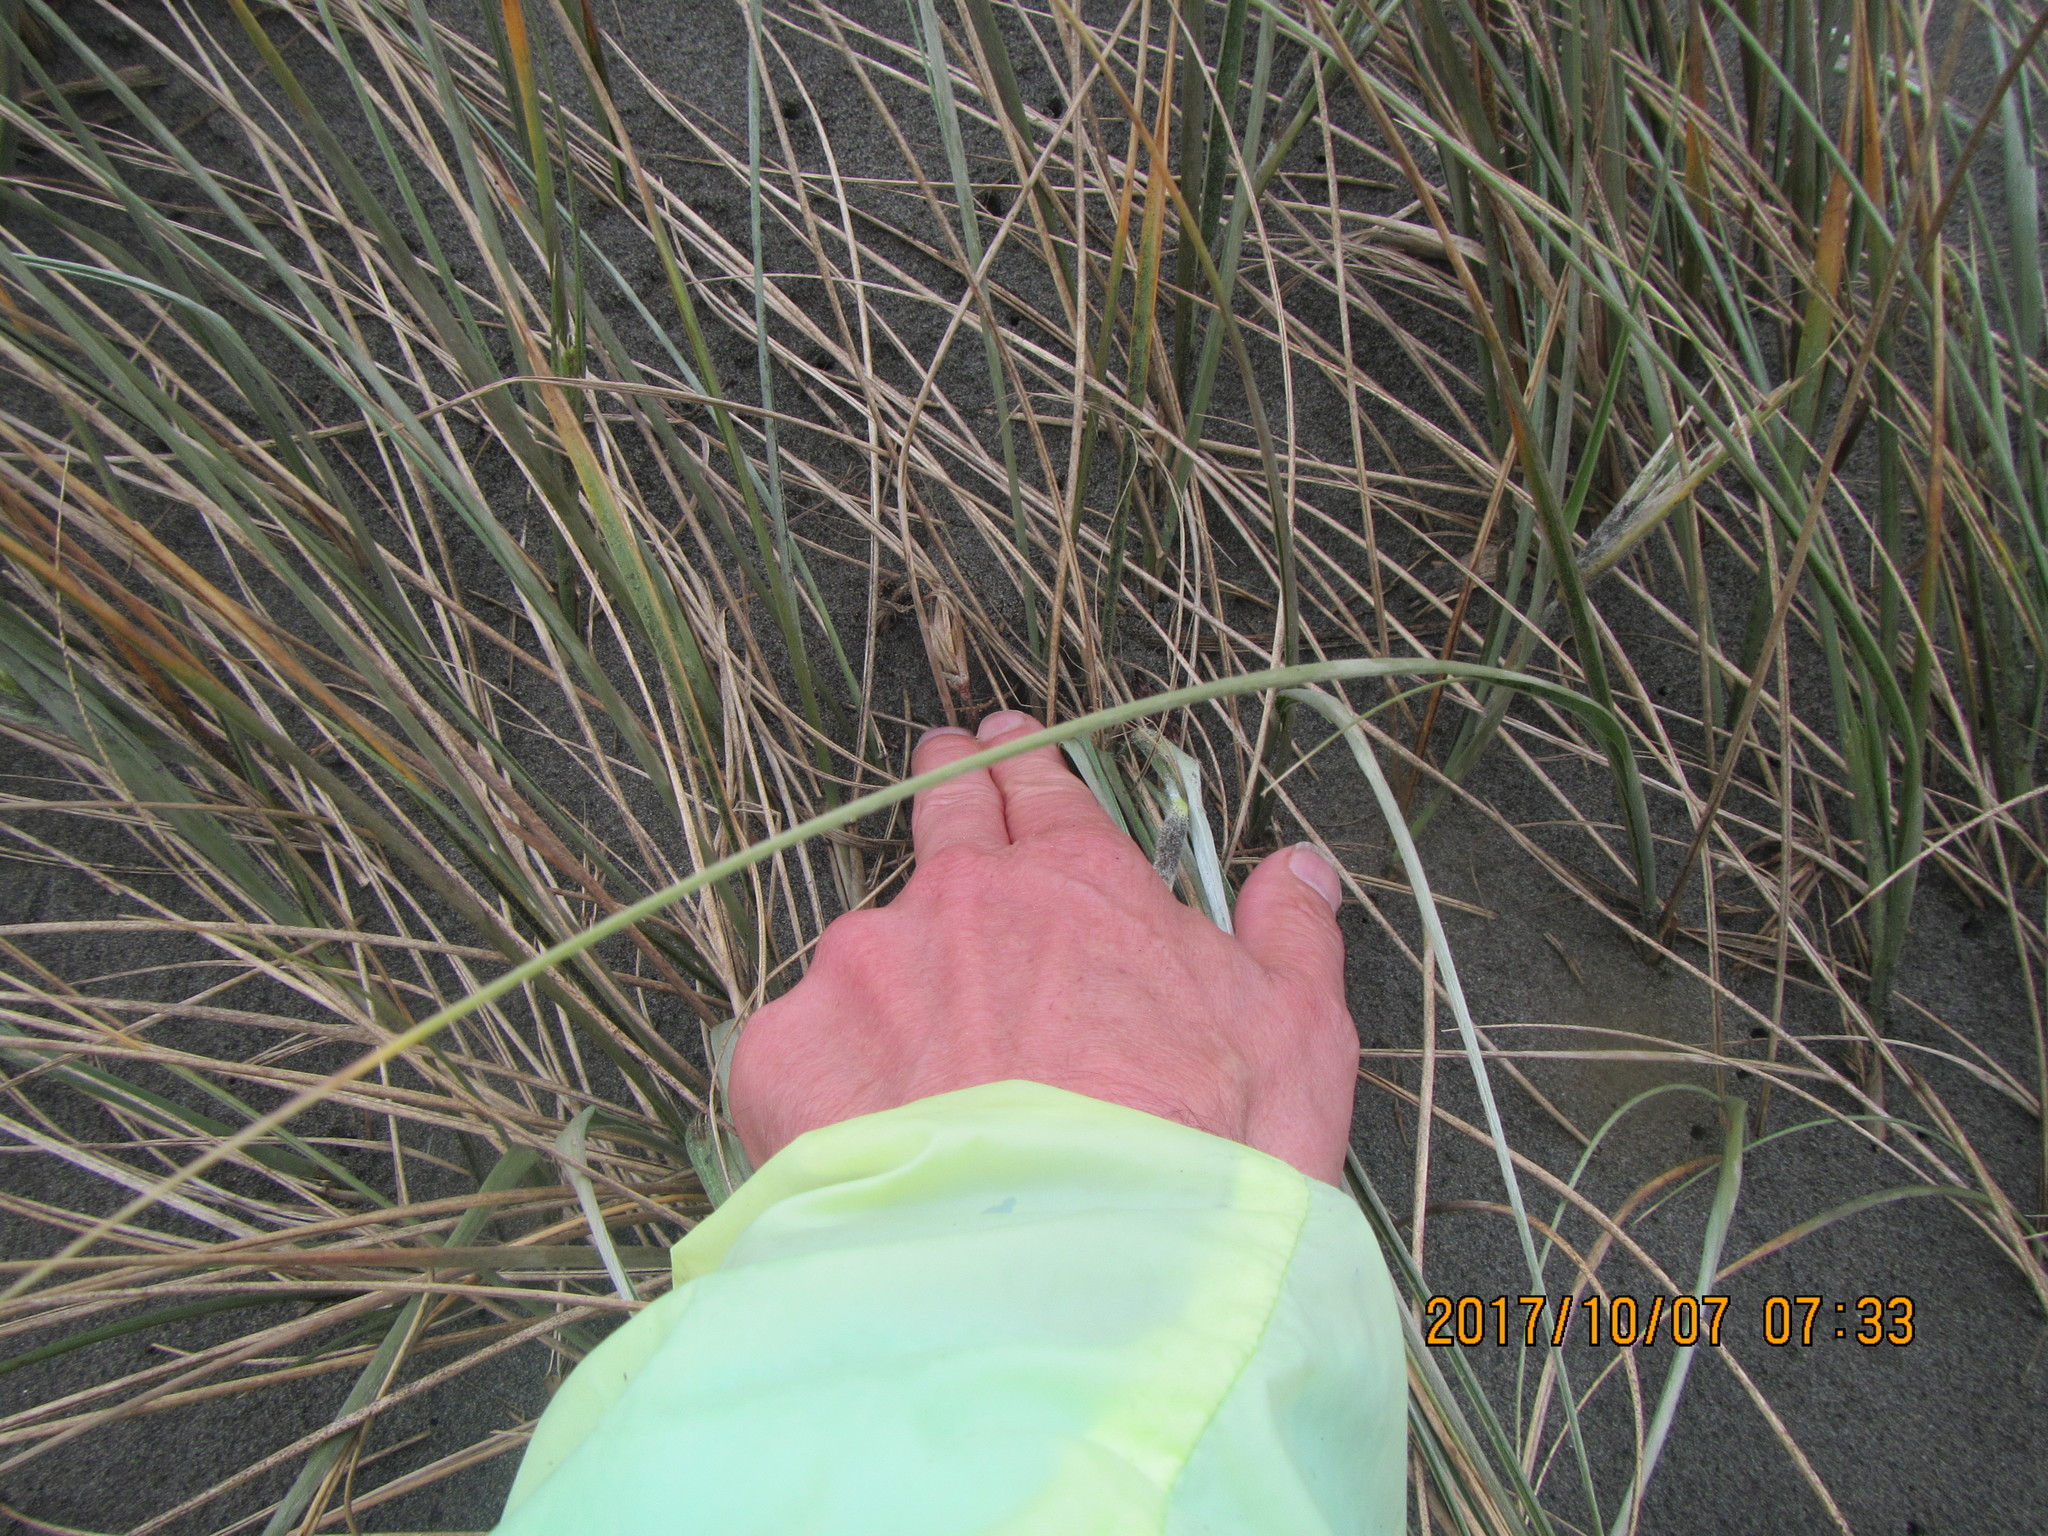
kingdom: Animalia
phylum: Arthropoda
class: Arachnida
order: Araneae
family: Theridiidae
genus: Latrodectus
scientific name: Latrodectus katipo
